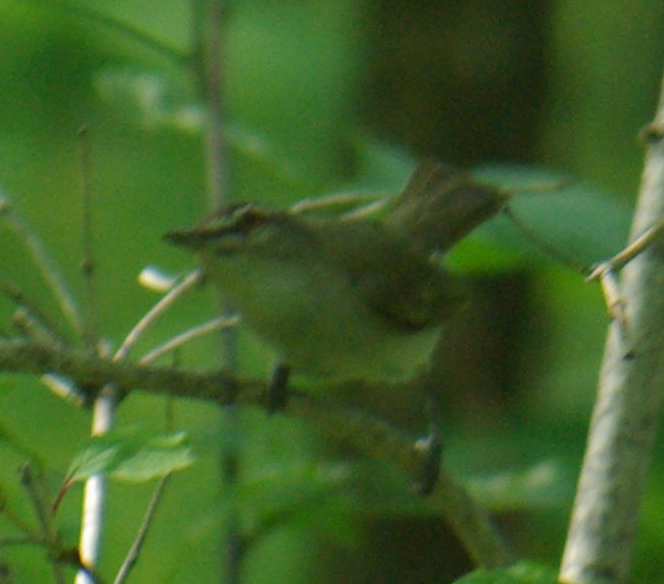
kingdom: Animalia
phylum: Chordata
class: Aves
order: Passeriformes
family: Vireonidae
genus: Vireo
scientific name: Vireo olivaceus
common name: Red-eyed vireo
